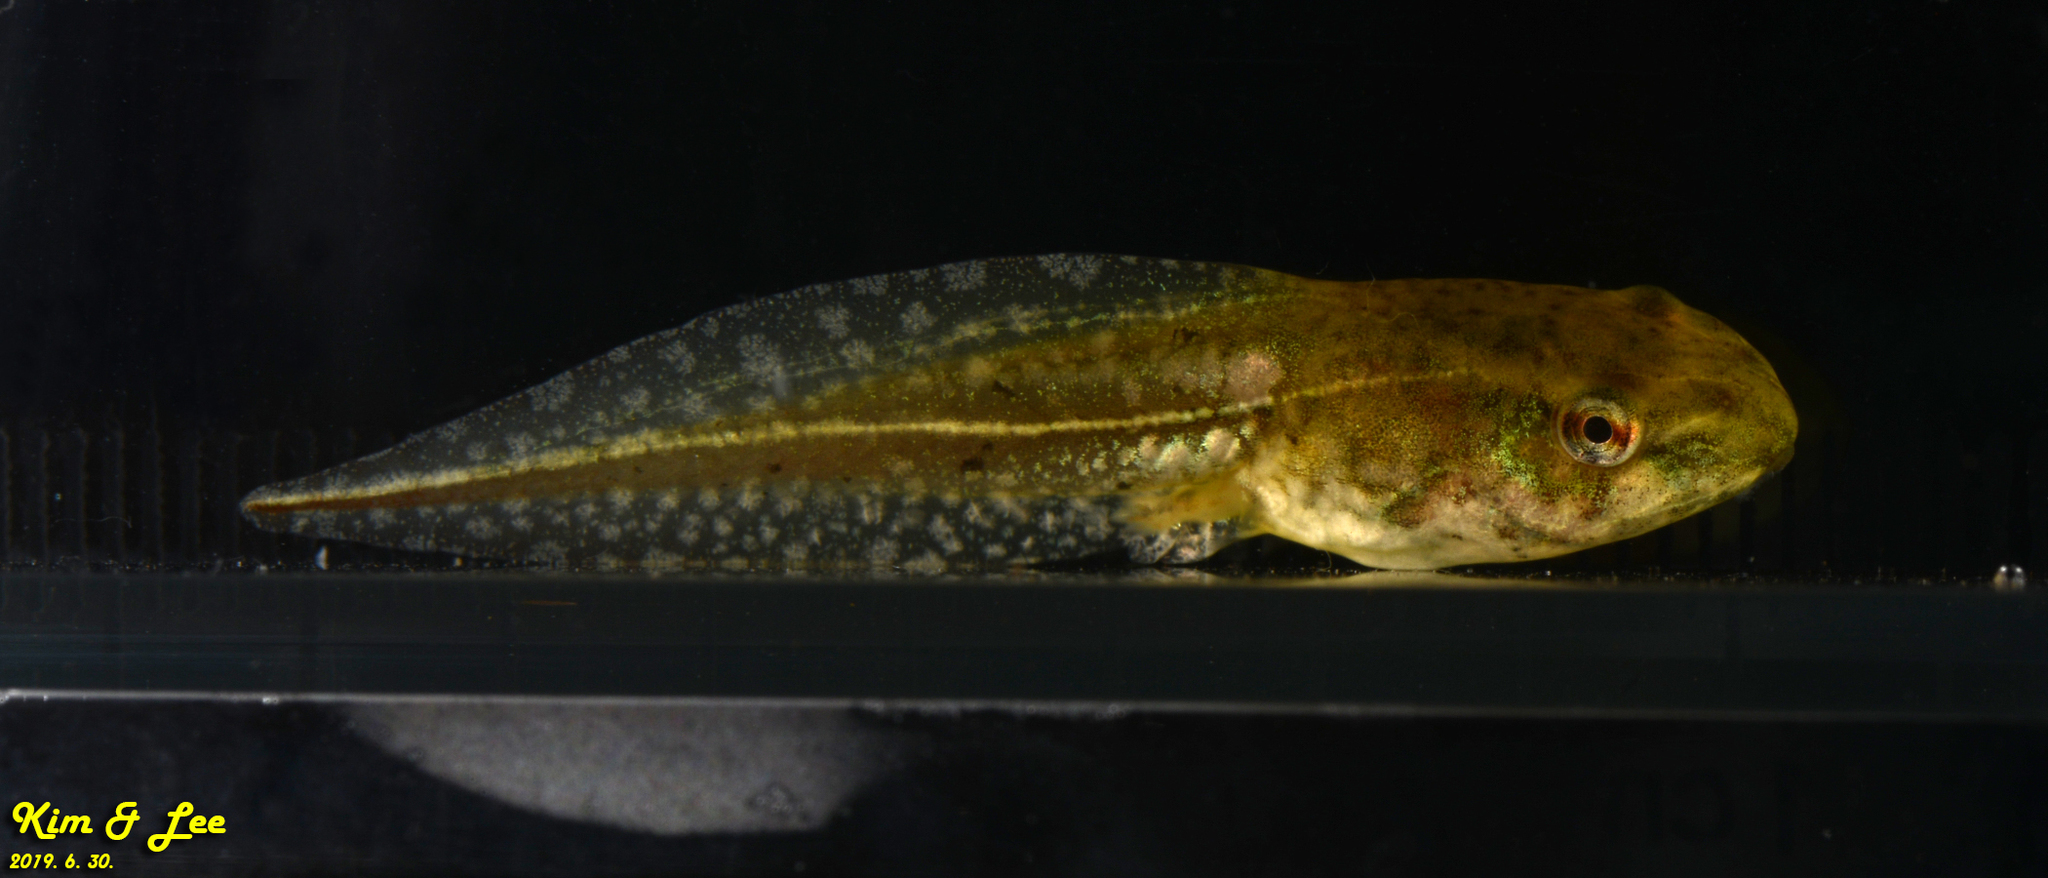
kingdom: Animalia
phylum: Chordata
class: Amphibia
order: Anura
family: Ranidae
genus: Pelophylax
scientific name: Pelophylax chosenicus
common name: Gold-spotted pond frog
